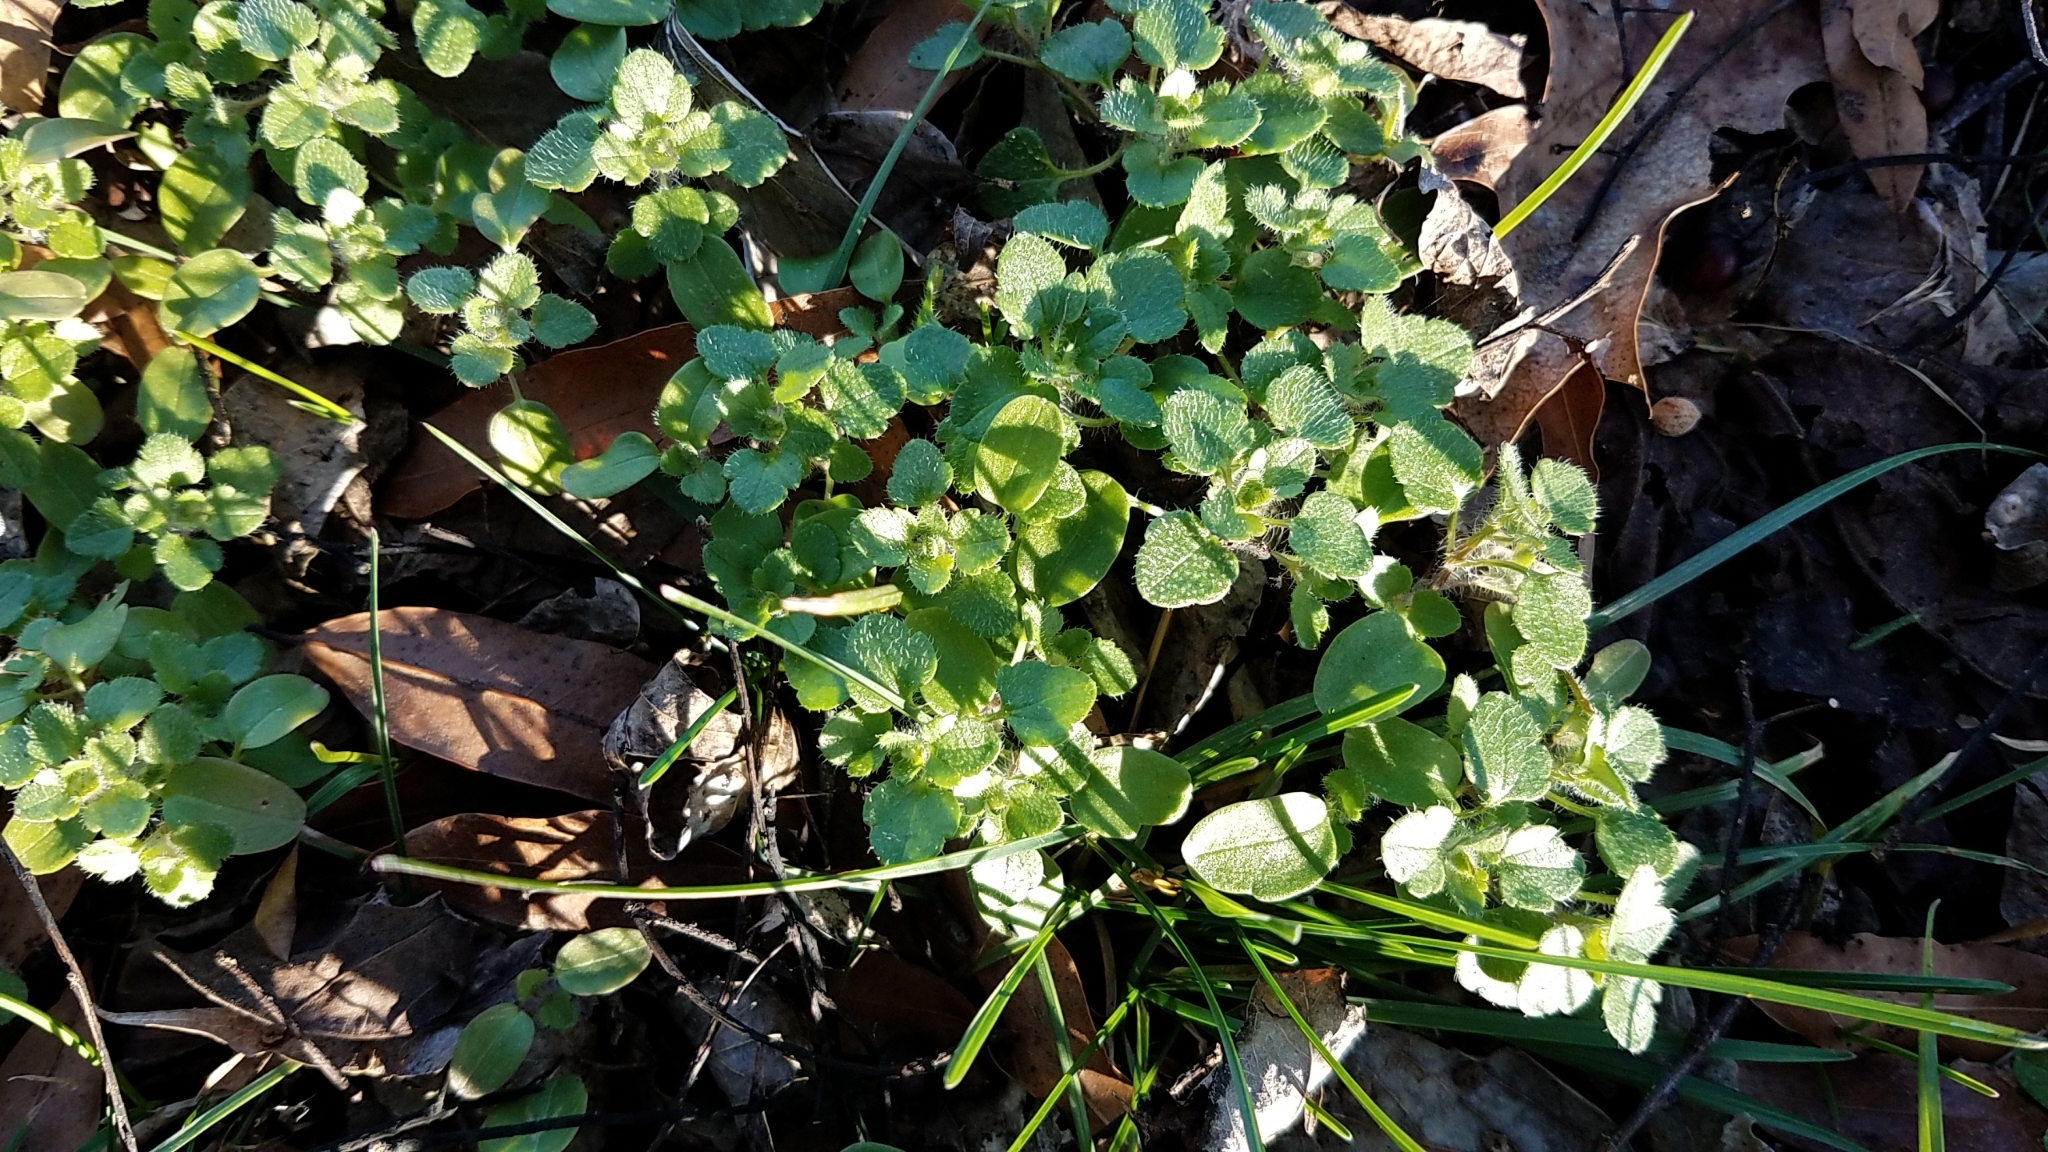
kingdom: Plantae
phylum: Tracheophyta
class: Magnoliopsida
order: Lamiales
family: Plantaginaceae
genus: Veronica
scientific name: Veronica hederifolia
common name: Ivy-leaved speedwell
